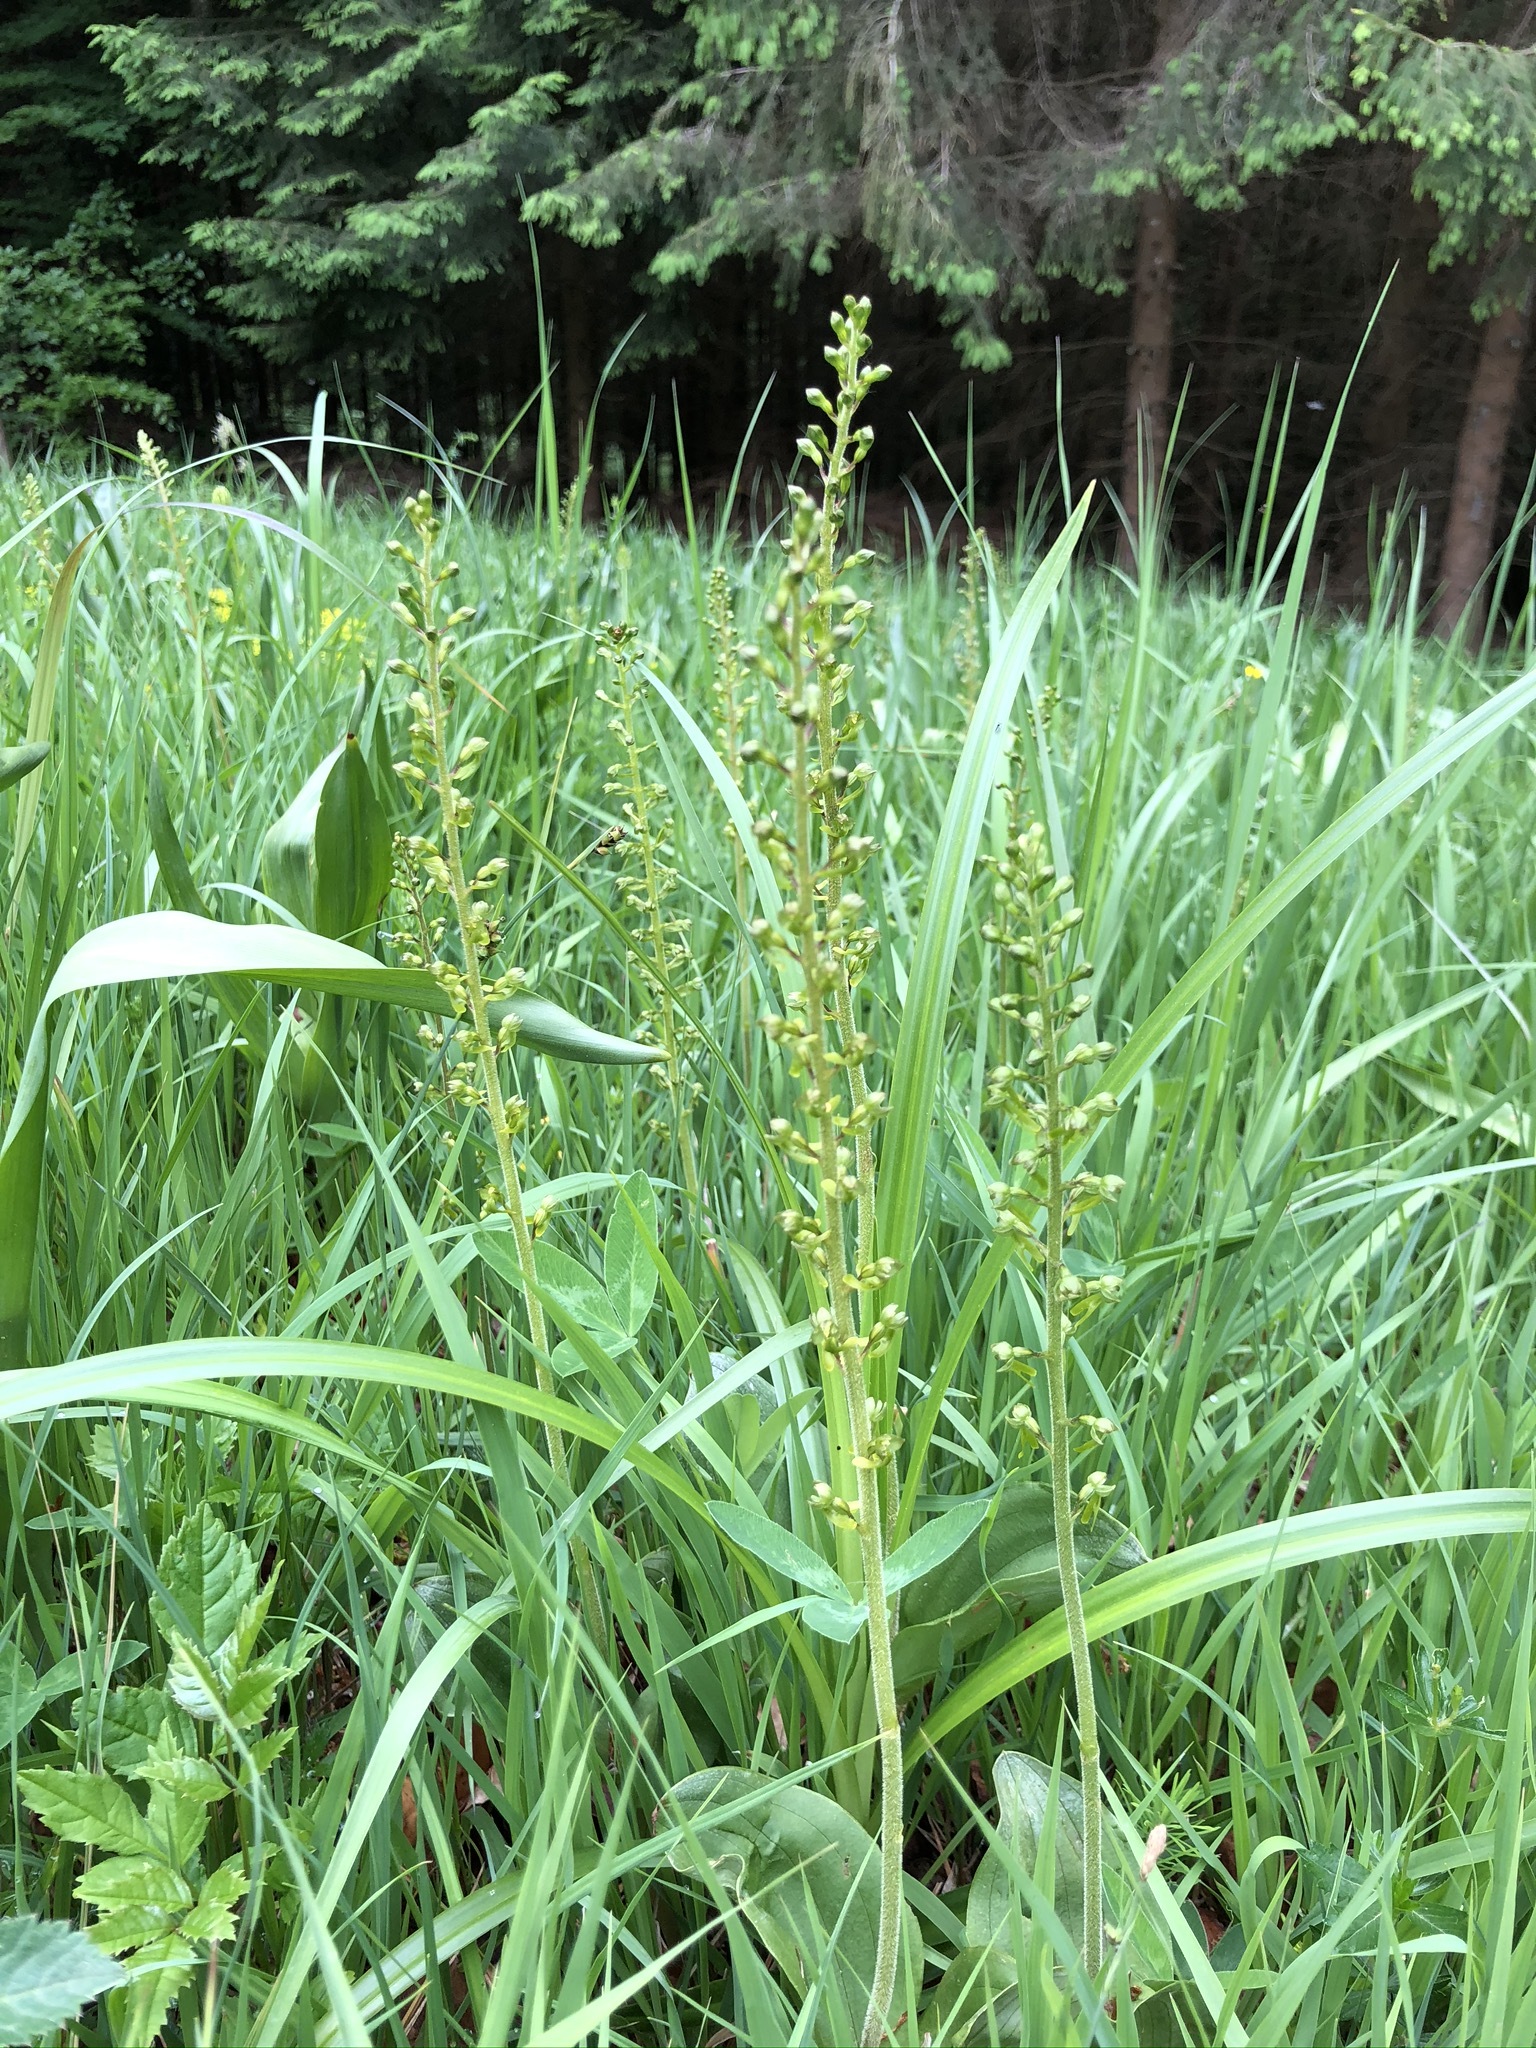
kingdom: Plantae
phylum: Tracheophyta
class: Liliopsida
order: Asparagales
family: Orchidaceae
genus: Neottia
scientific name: Neottia ovata
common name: Common twayblade
